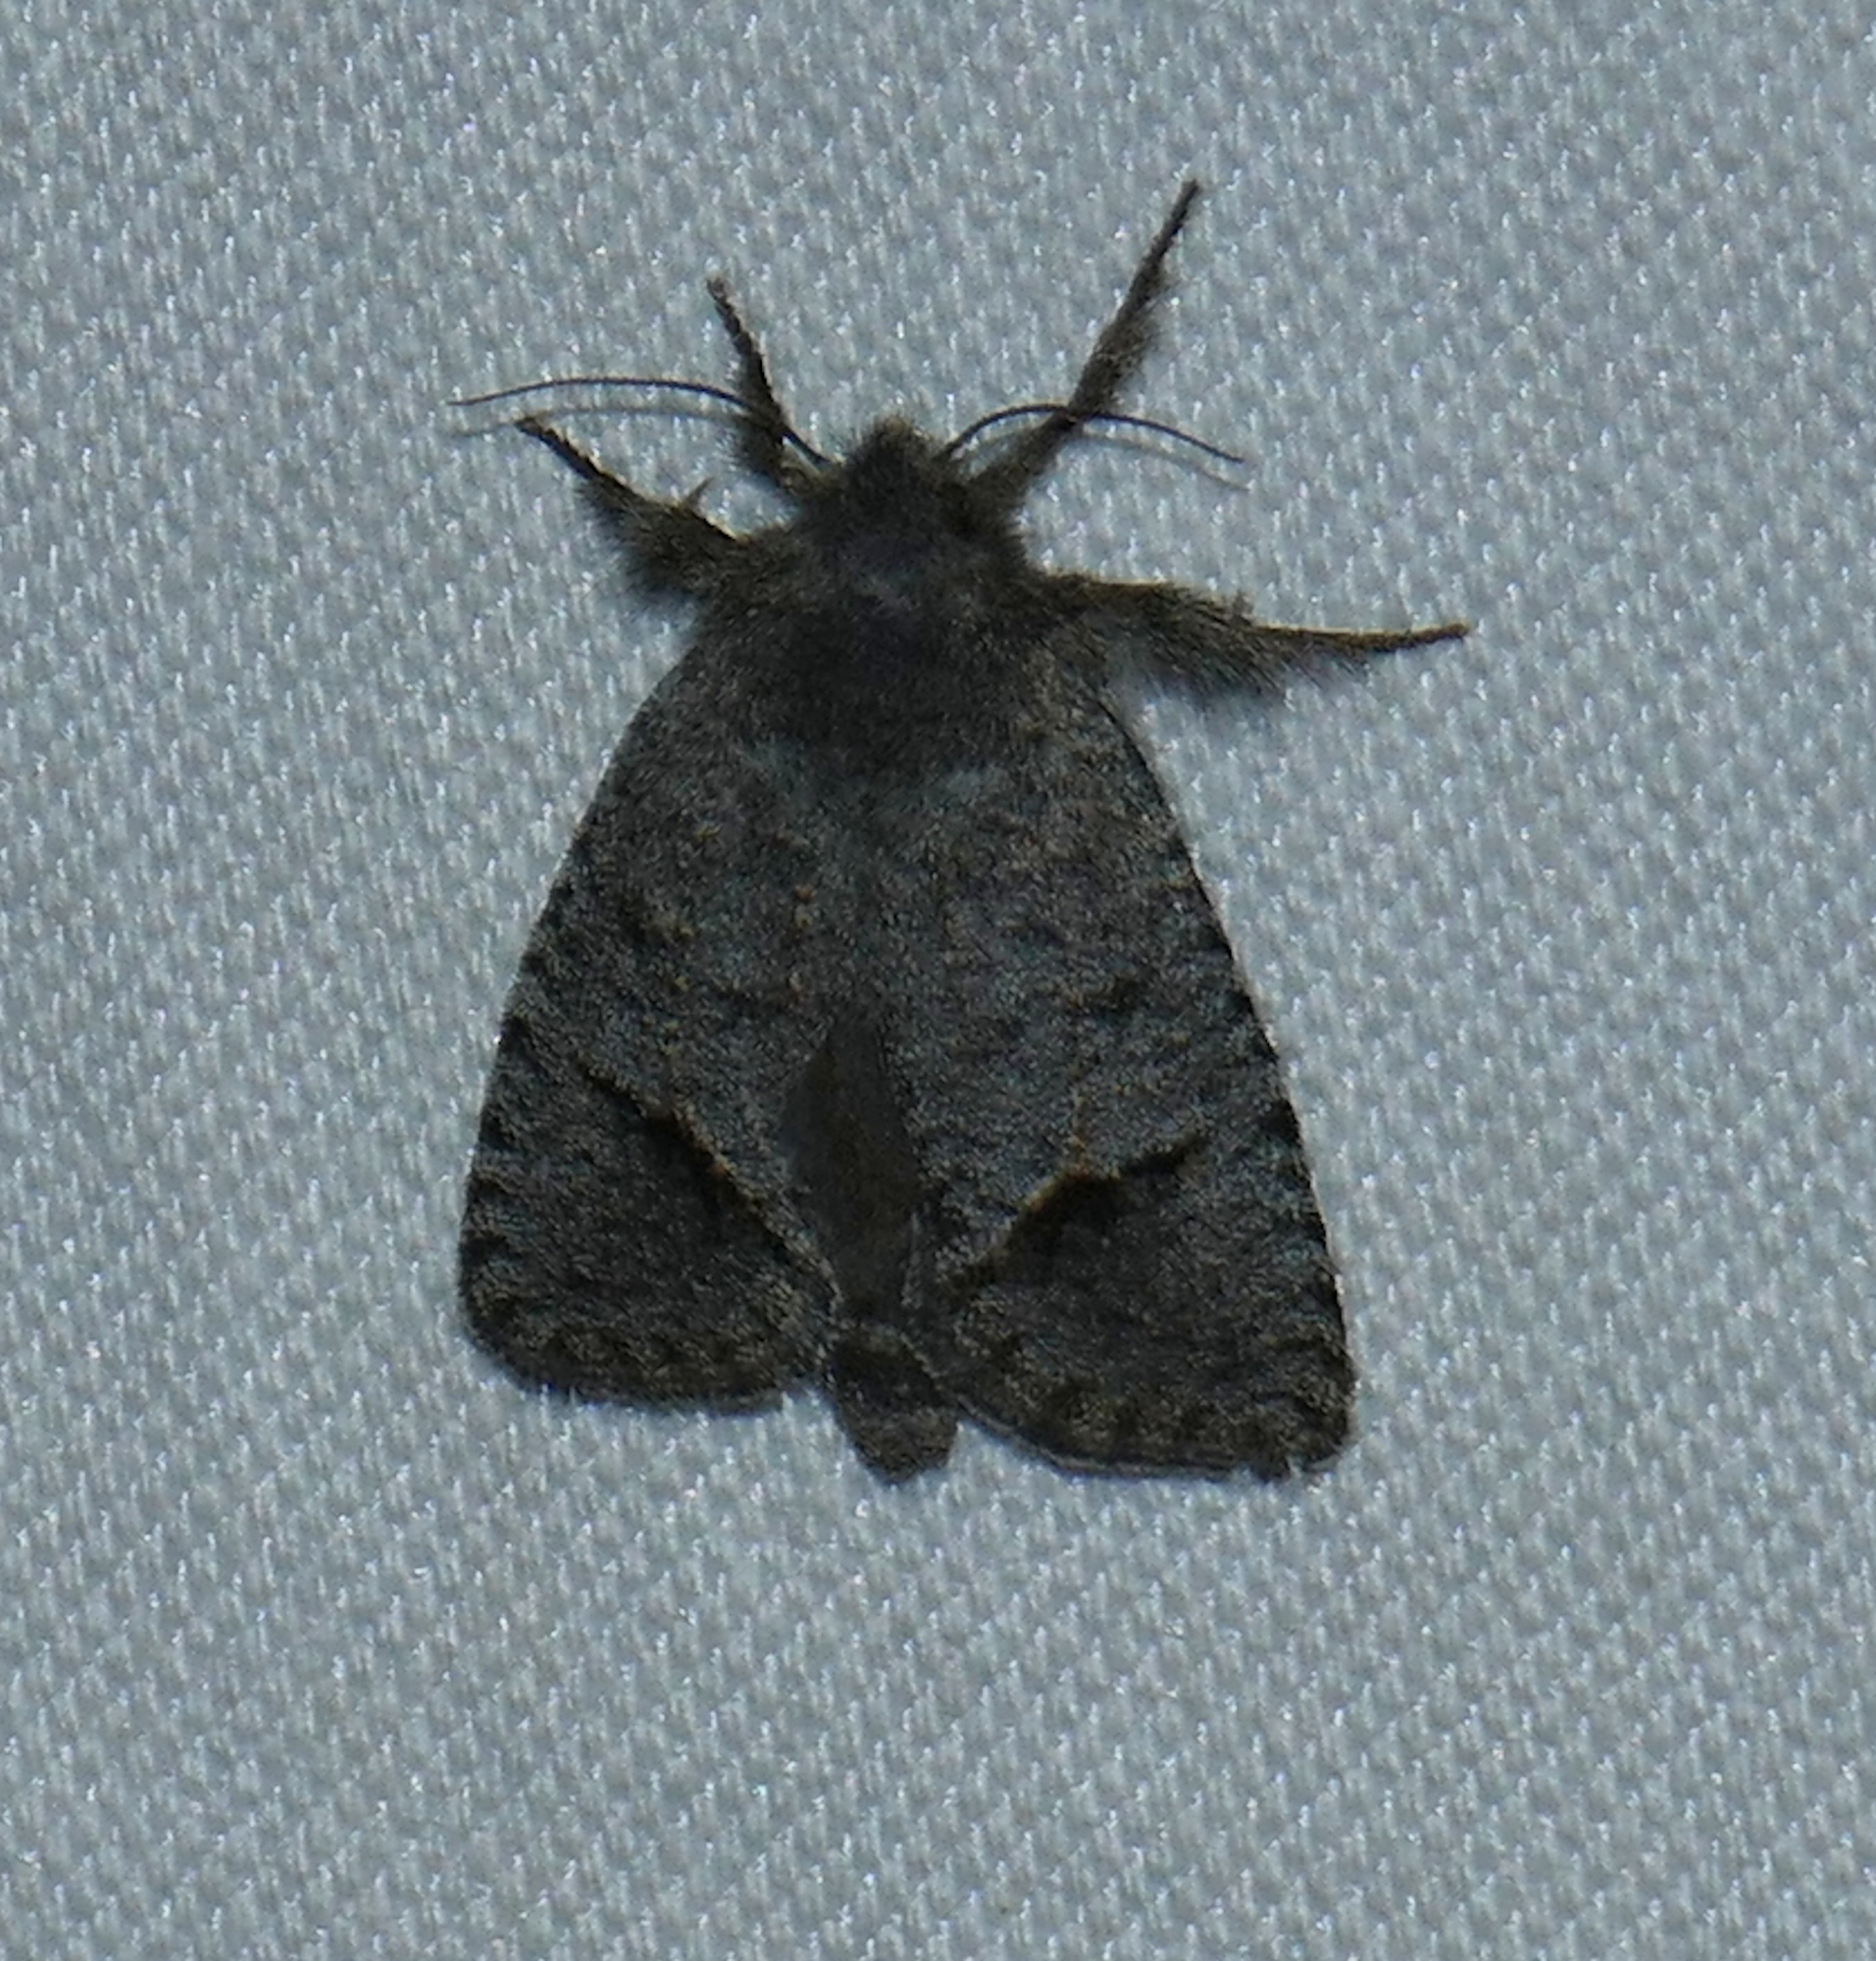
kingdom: Animalia
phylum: Arthropoda
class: Insecta
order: Lepidoptera
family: Tineidae
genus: Acrolophus
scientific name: Acrolophus filicornis
